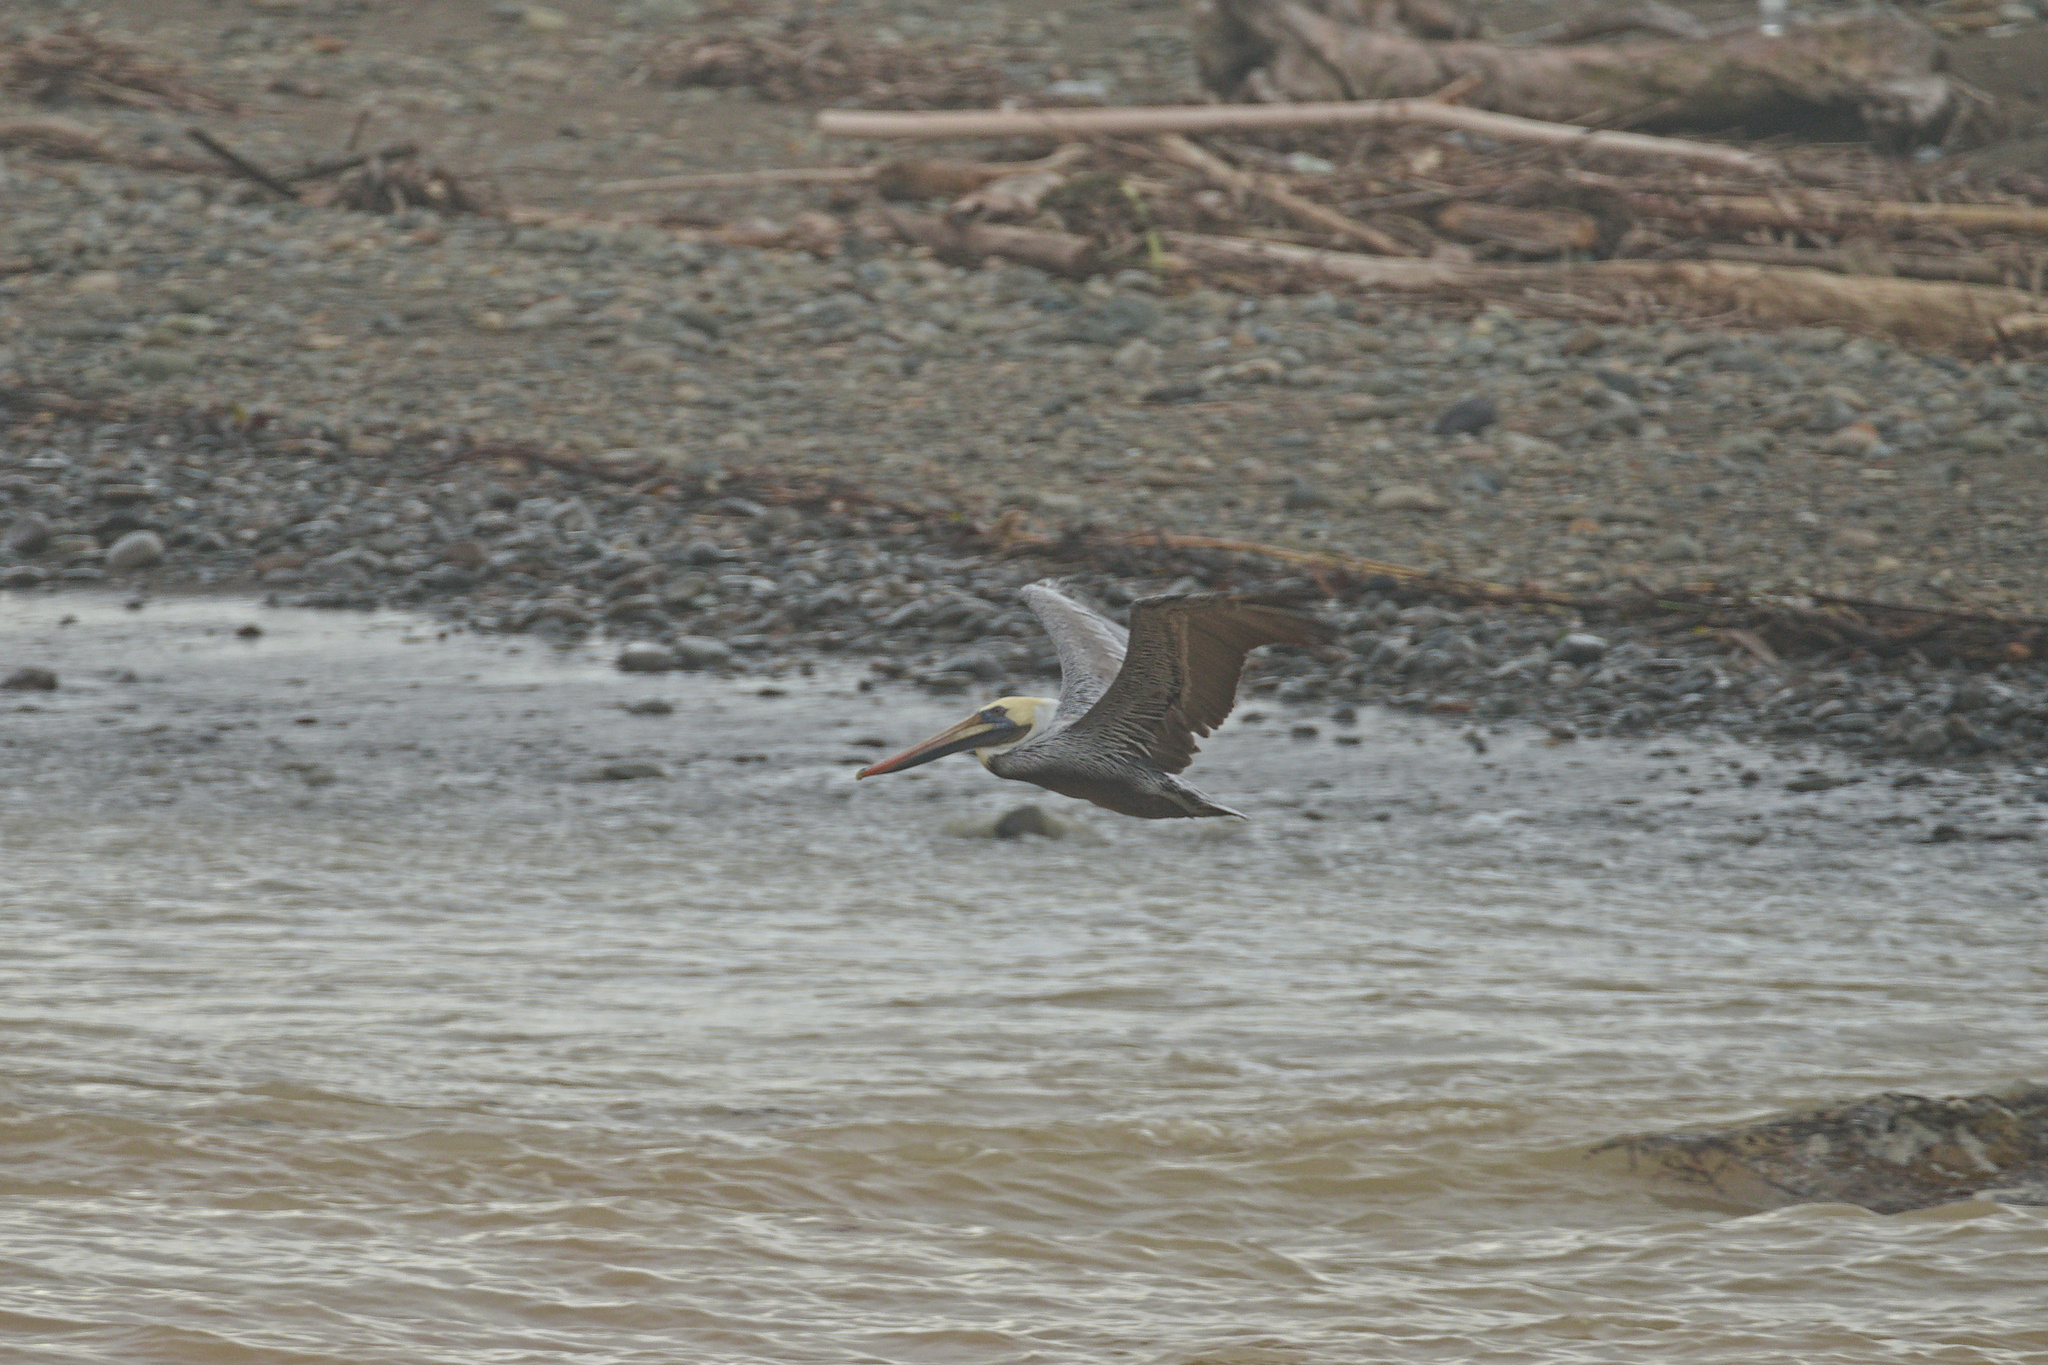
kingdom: Animalia
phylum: Chordata
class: Aves
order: Pelecaniformes
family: Pelecanidae
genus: Pelecanus
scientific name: Pelecanus occidentalis
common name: Brown pelican
